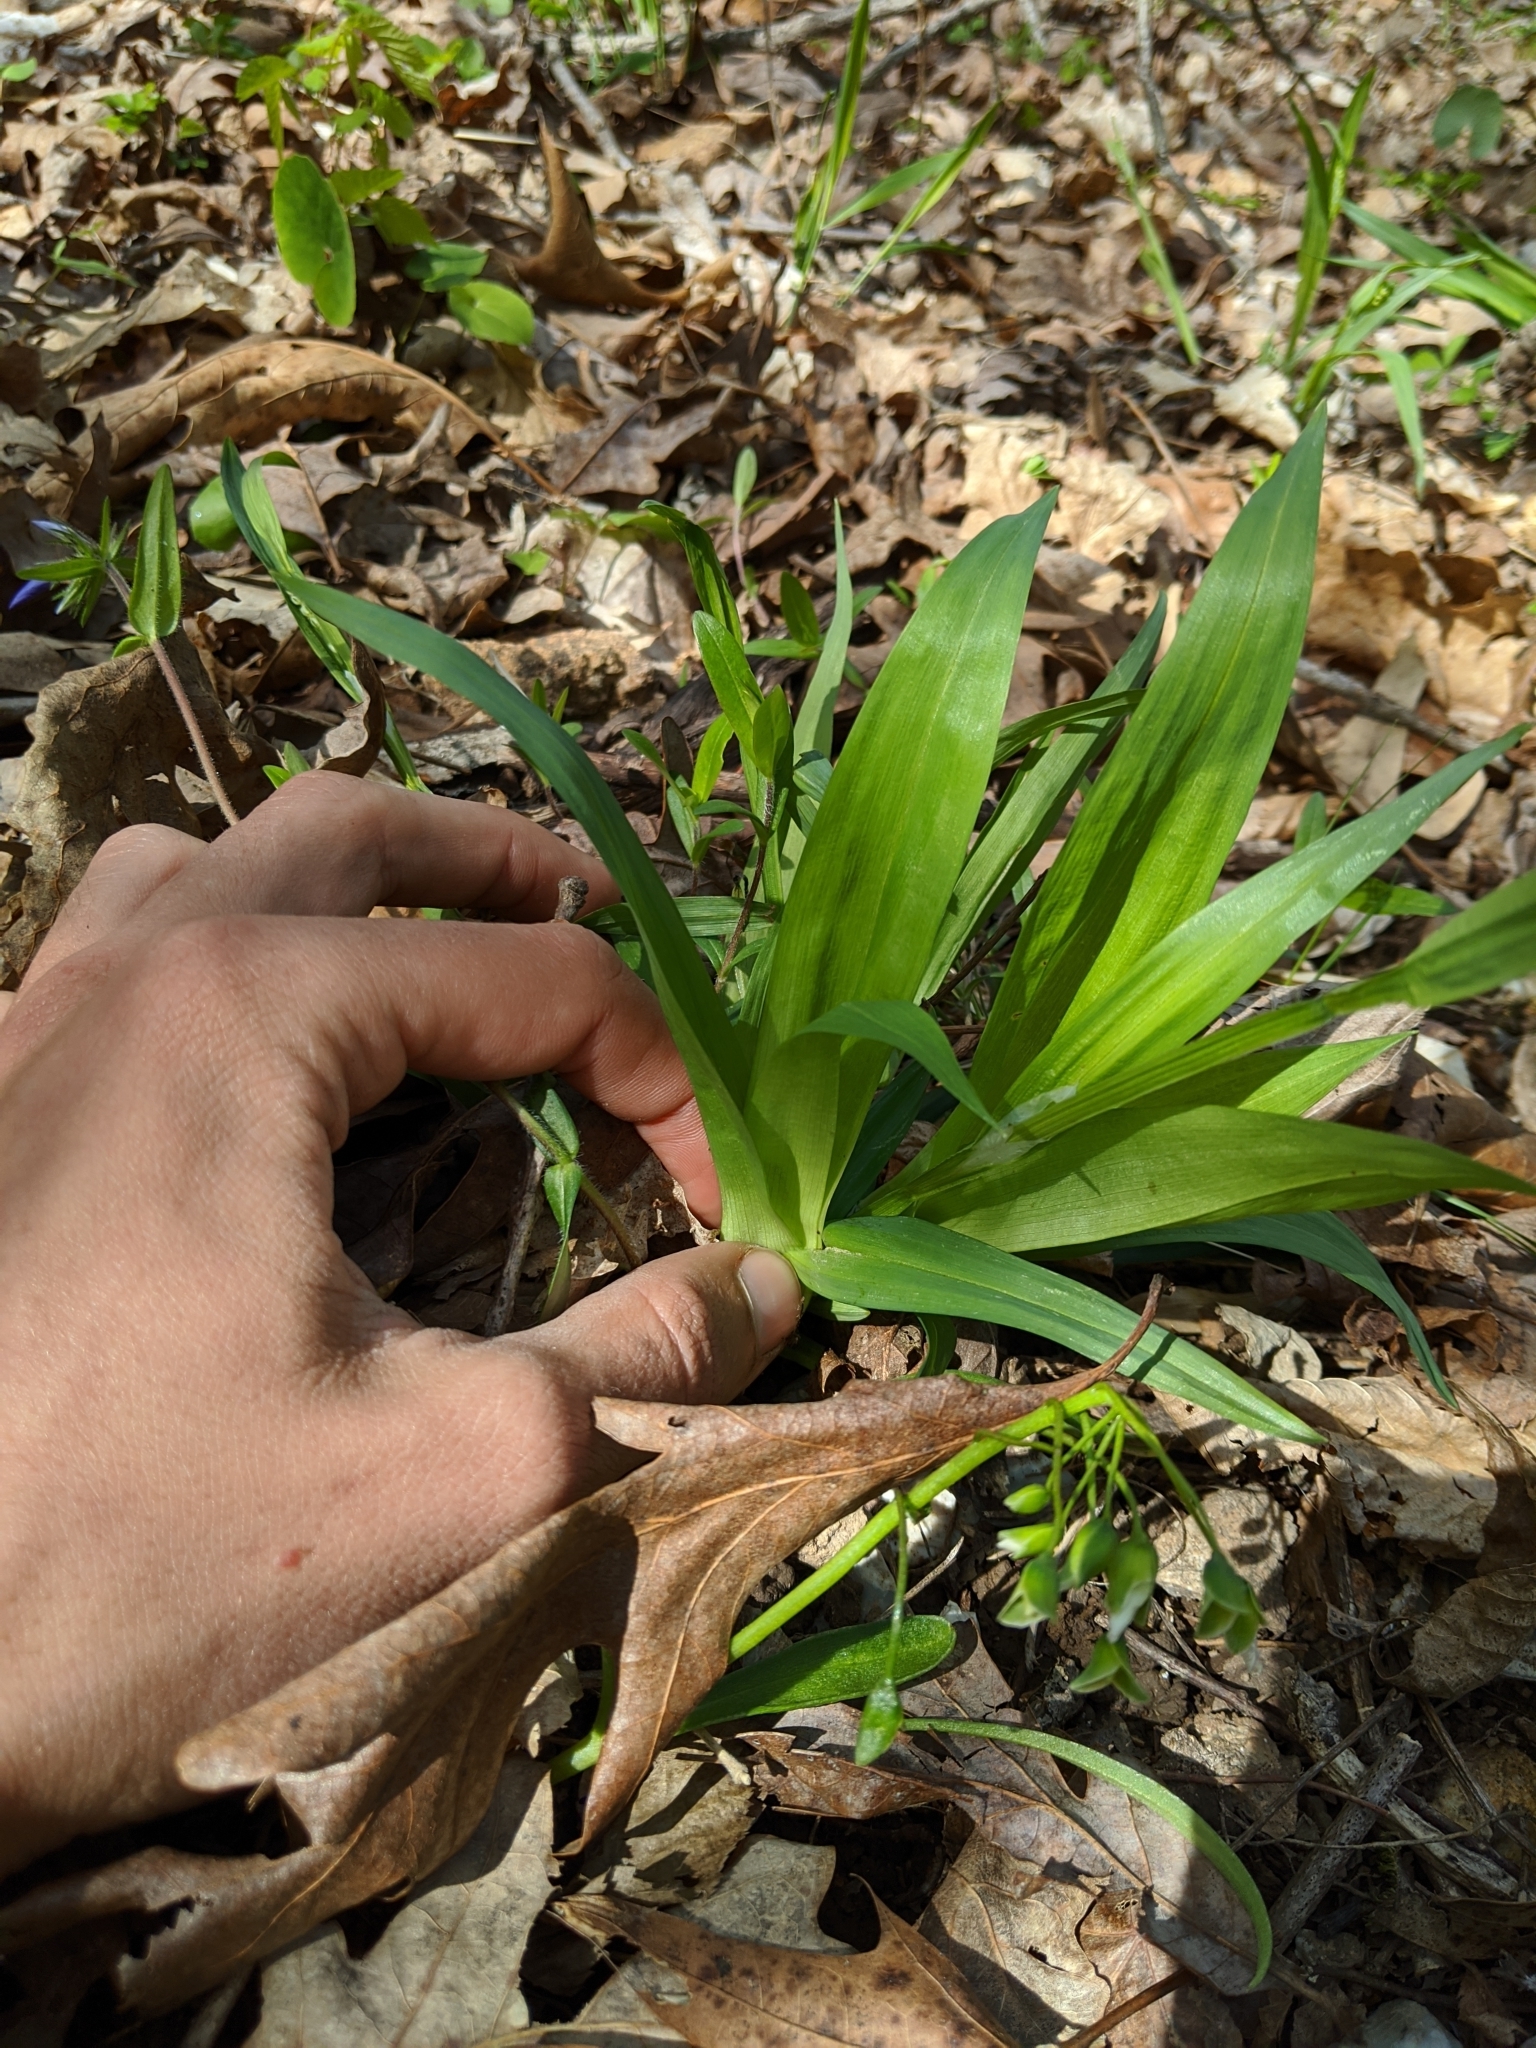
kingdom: Plantae
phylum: Tracheophyta
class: Liliopsida
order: Poales
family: Cyperaceae
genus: Carex
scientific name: Carex albursina
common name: Blunt-scale wood sedge
